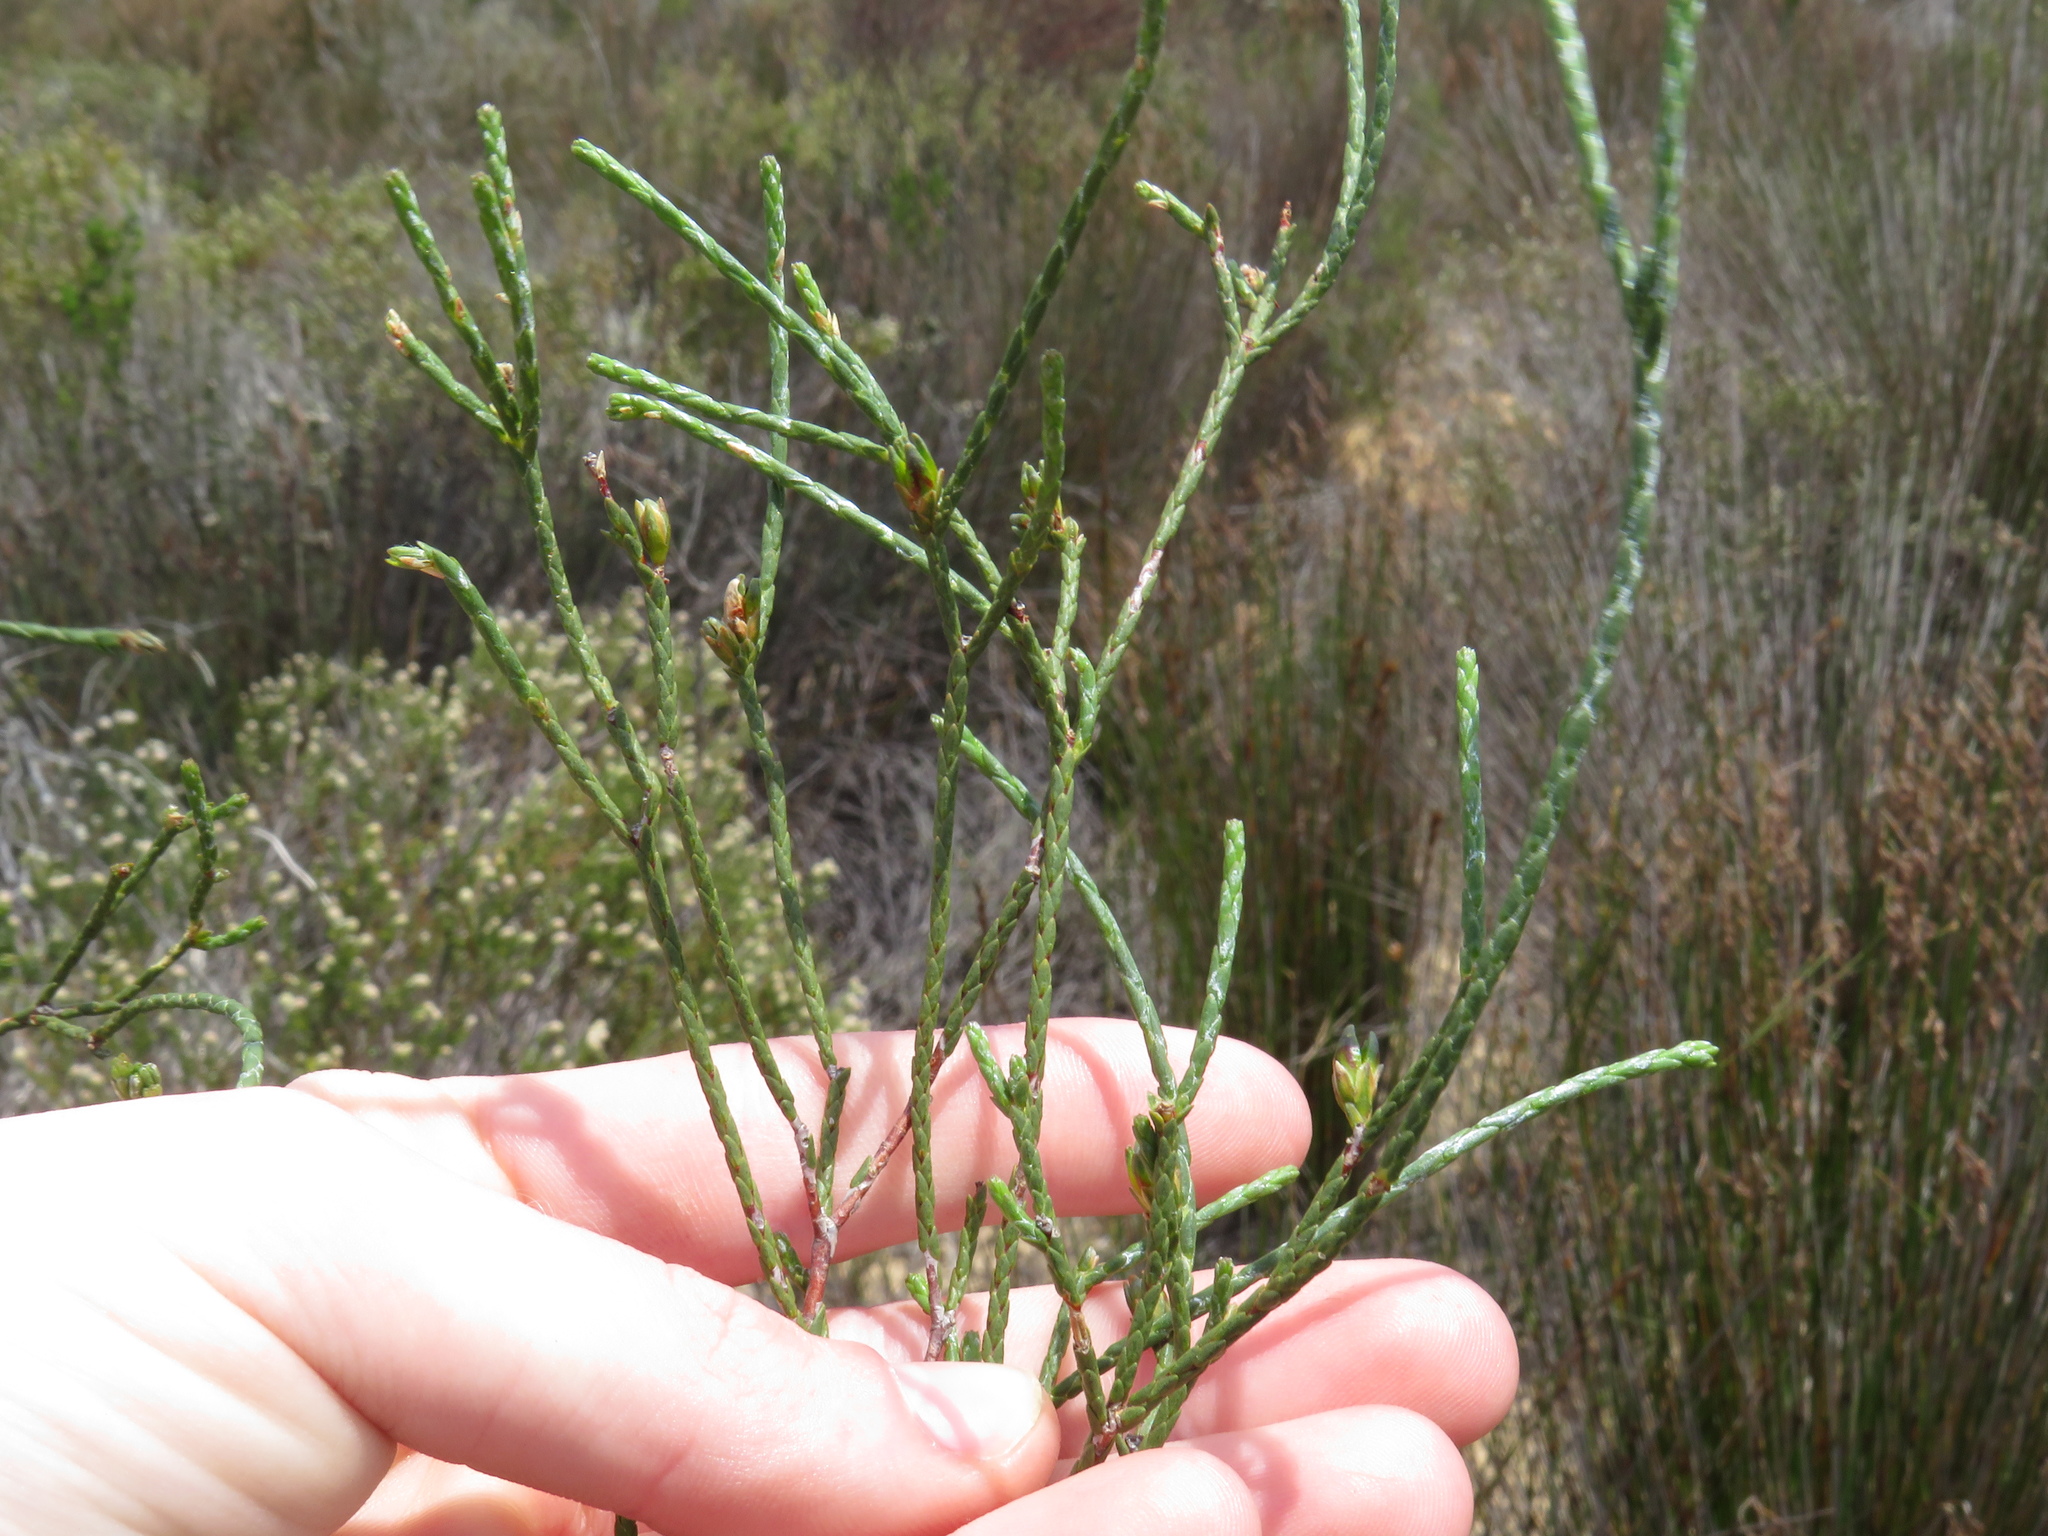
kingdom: Plantae
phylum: Tracheophyta
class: Magnoliopsida
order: Sapindales
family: Rutaceae
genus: Macrostylis
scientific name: Macrostylis cassiopoides
